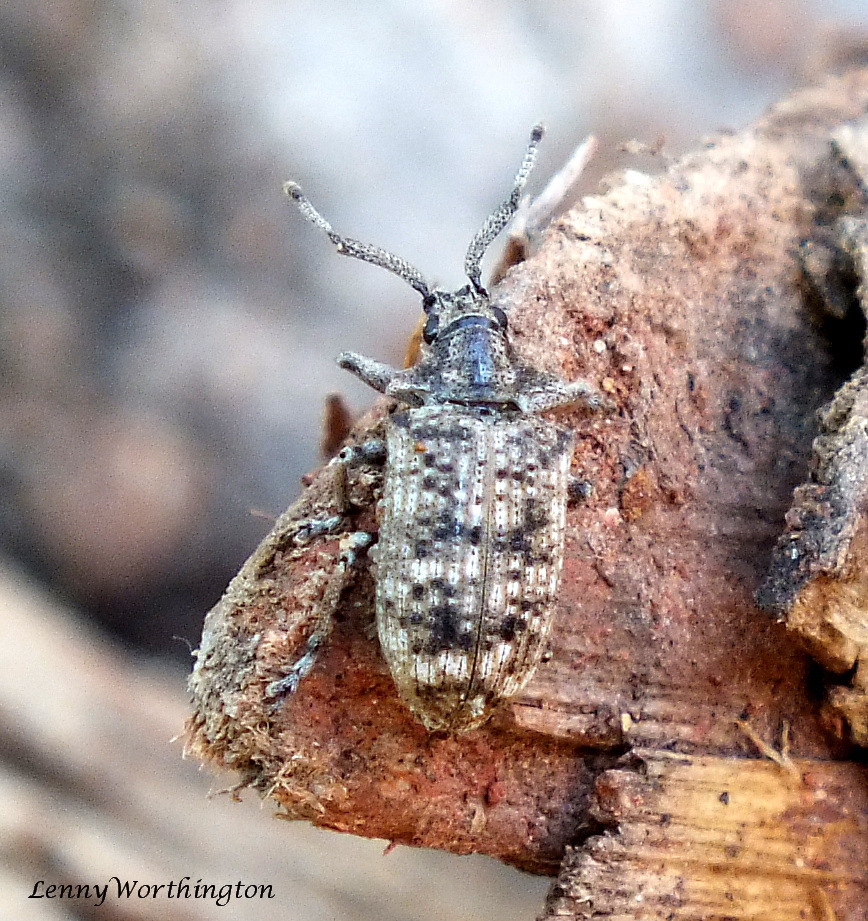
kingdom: Animalia
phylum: Arthropoda
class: Insecta
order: Coleoptera
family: Curculionidae
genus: Pollendera
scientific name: Pollendera atomaria
